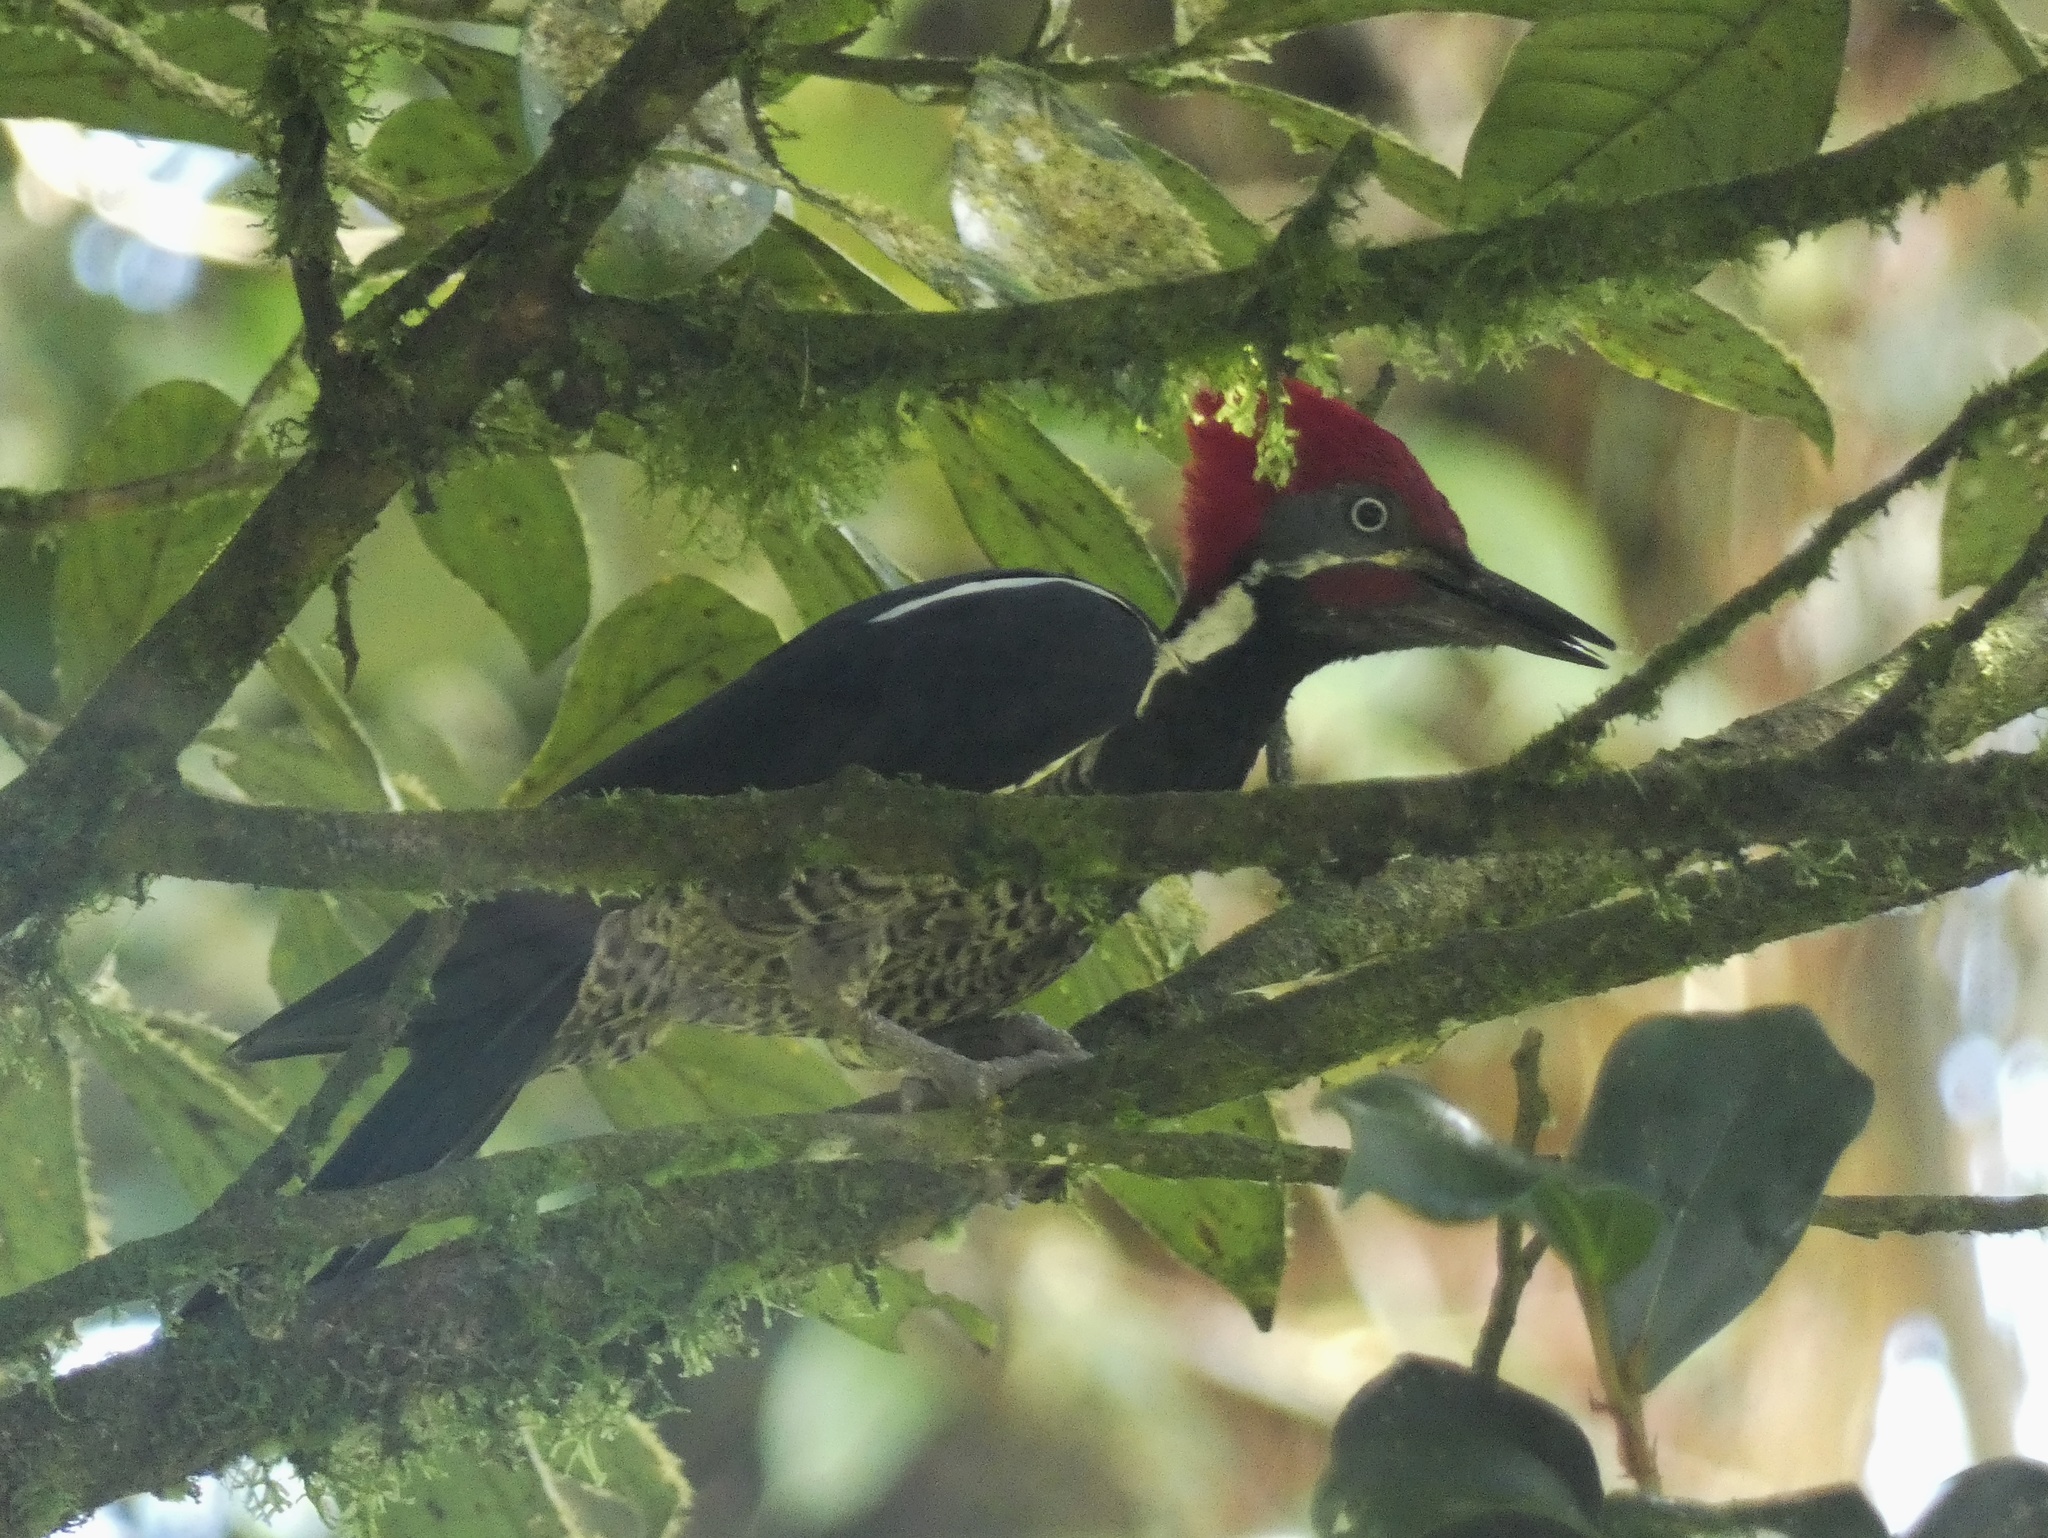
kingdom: Animalia
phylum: Chordata
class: Aves
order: Piciformes
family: Picidae
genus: Dryocopus
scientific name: Dryocopus lineatus
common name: Lineated woodpecker
